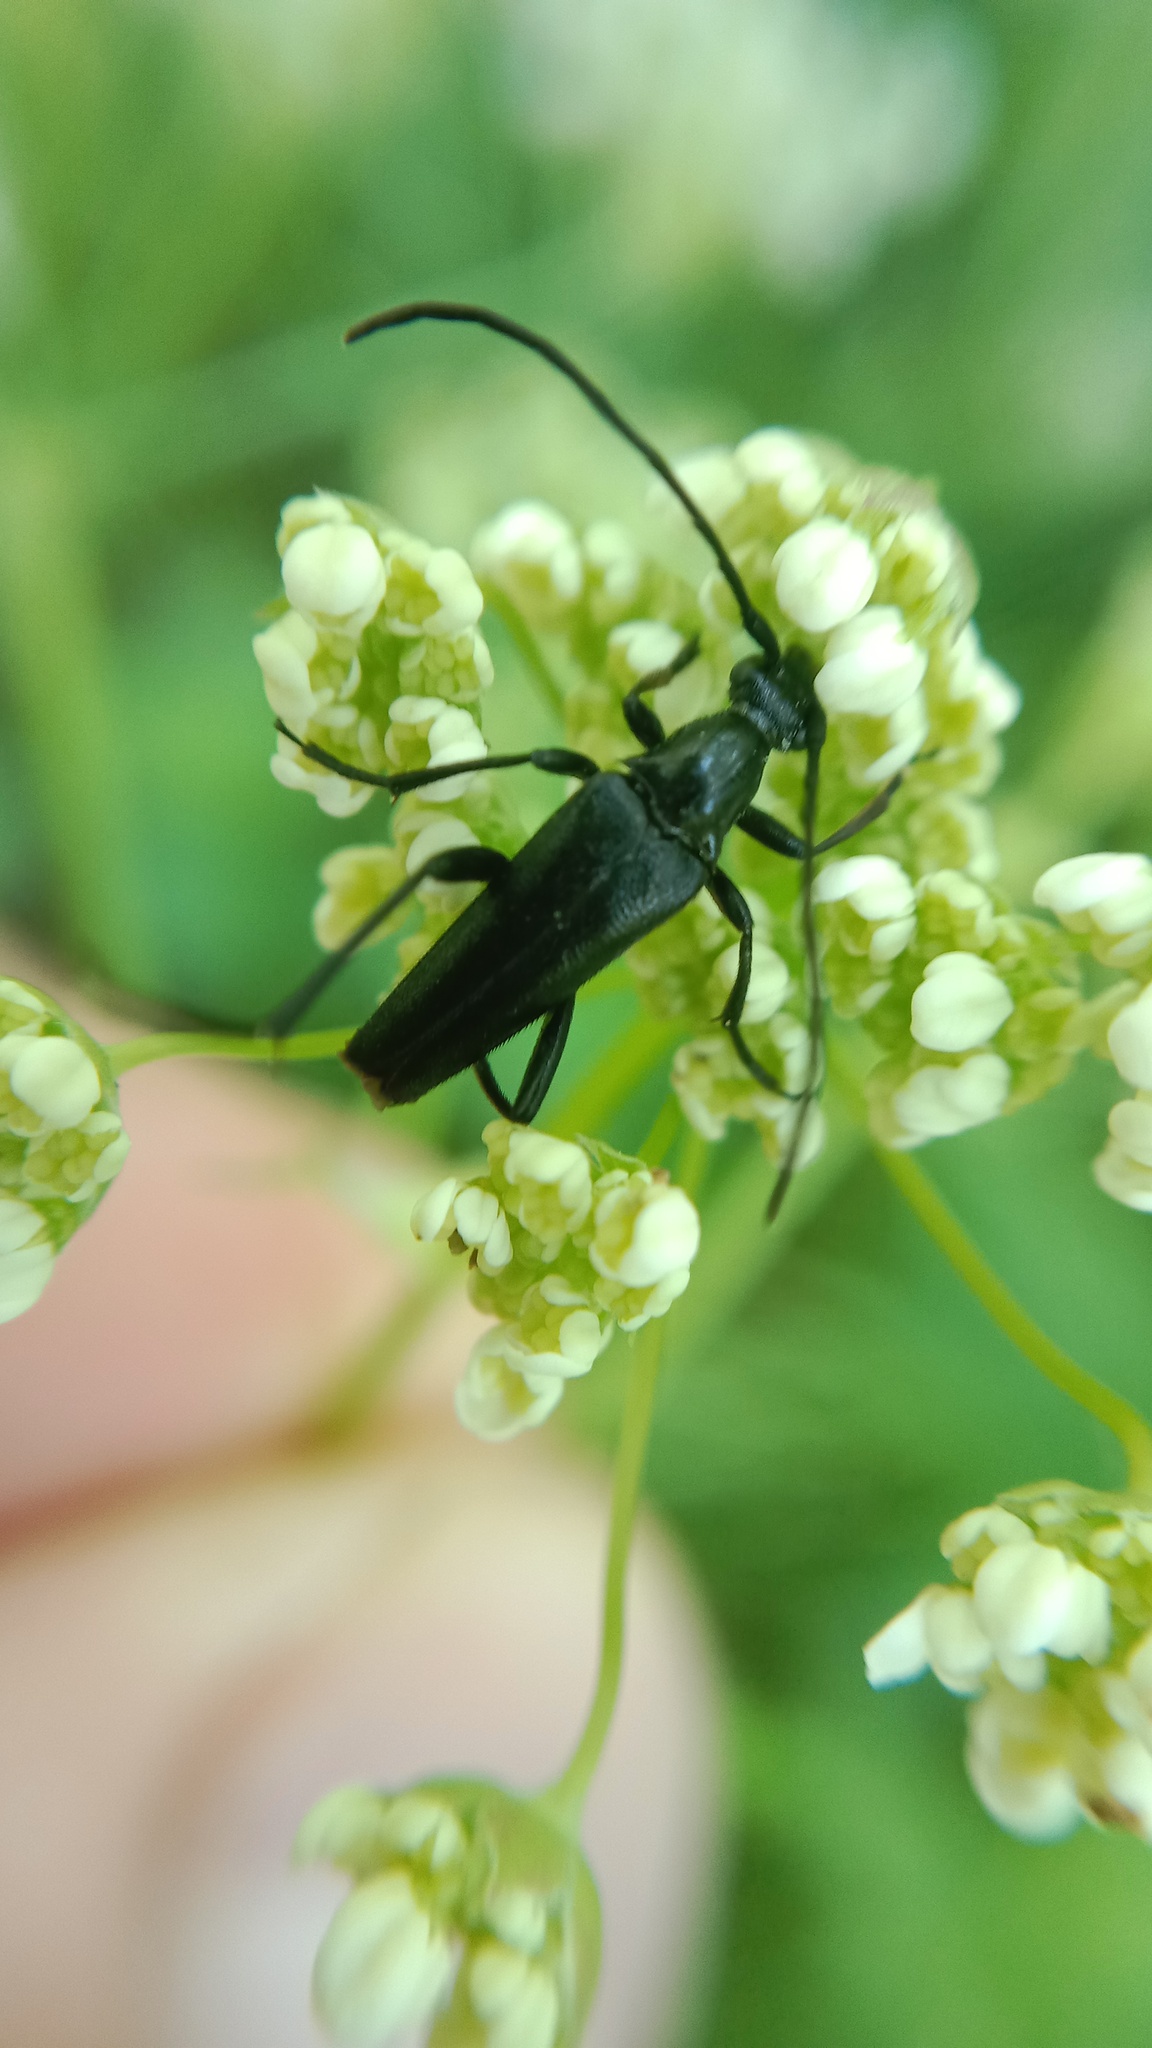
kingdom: Animalia
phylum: Arthropoda
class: Insecta
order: Coleoptera
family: Cerambycidae
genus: Stenurella
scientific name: Stenurella nigra
